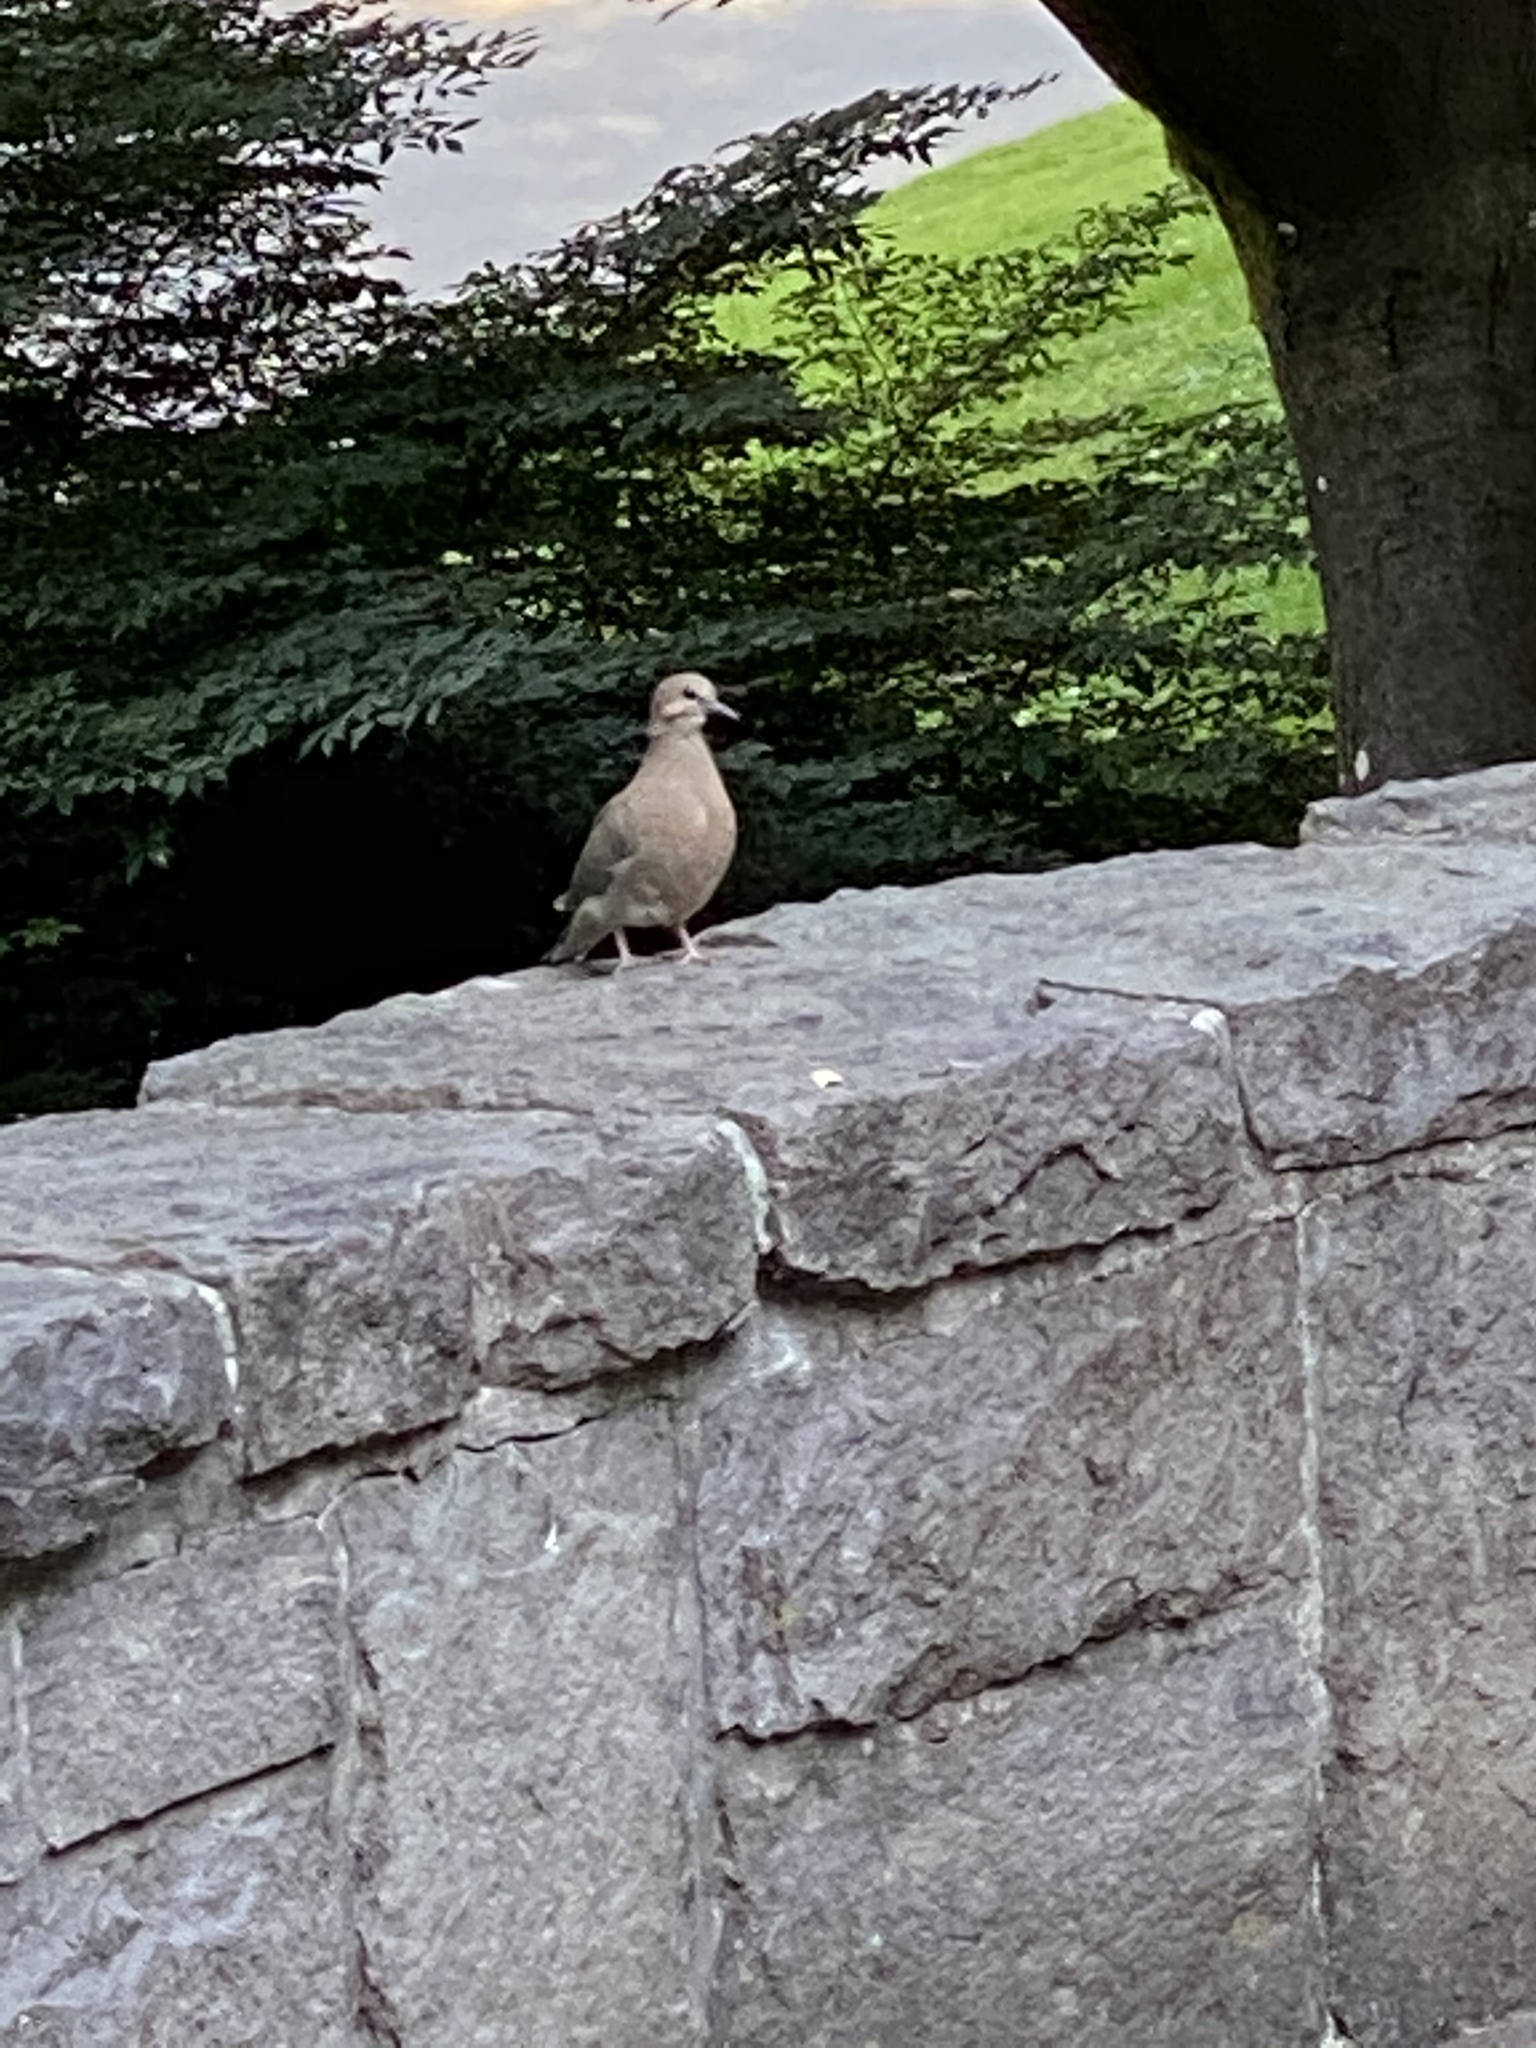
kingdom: Animalia
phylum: Chordata
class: Aves
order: Columbiformes
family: Columbidae
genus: Zenaida
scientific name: Zenaida macroura
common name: Mourning dove
